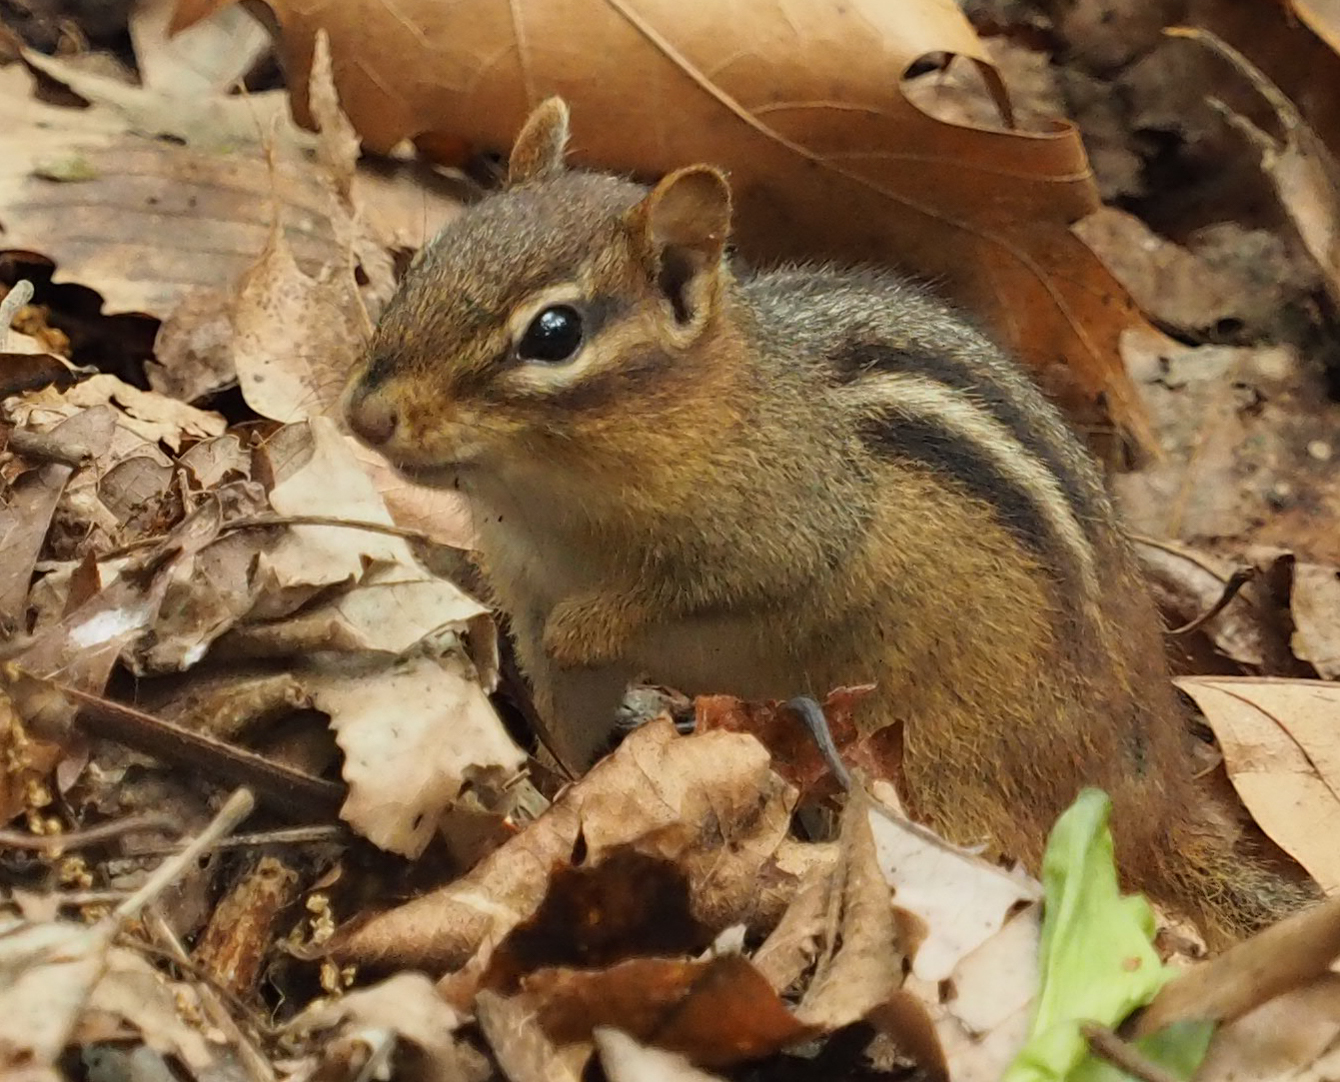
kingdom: Animalia
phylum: Chordata
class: Mammalia
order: Rodentia
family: Sciuridae
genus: Tamias
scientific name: Tamias striatus
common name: Eastern chipmunk
